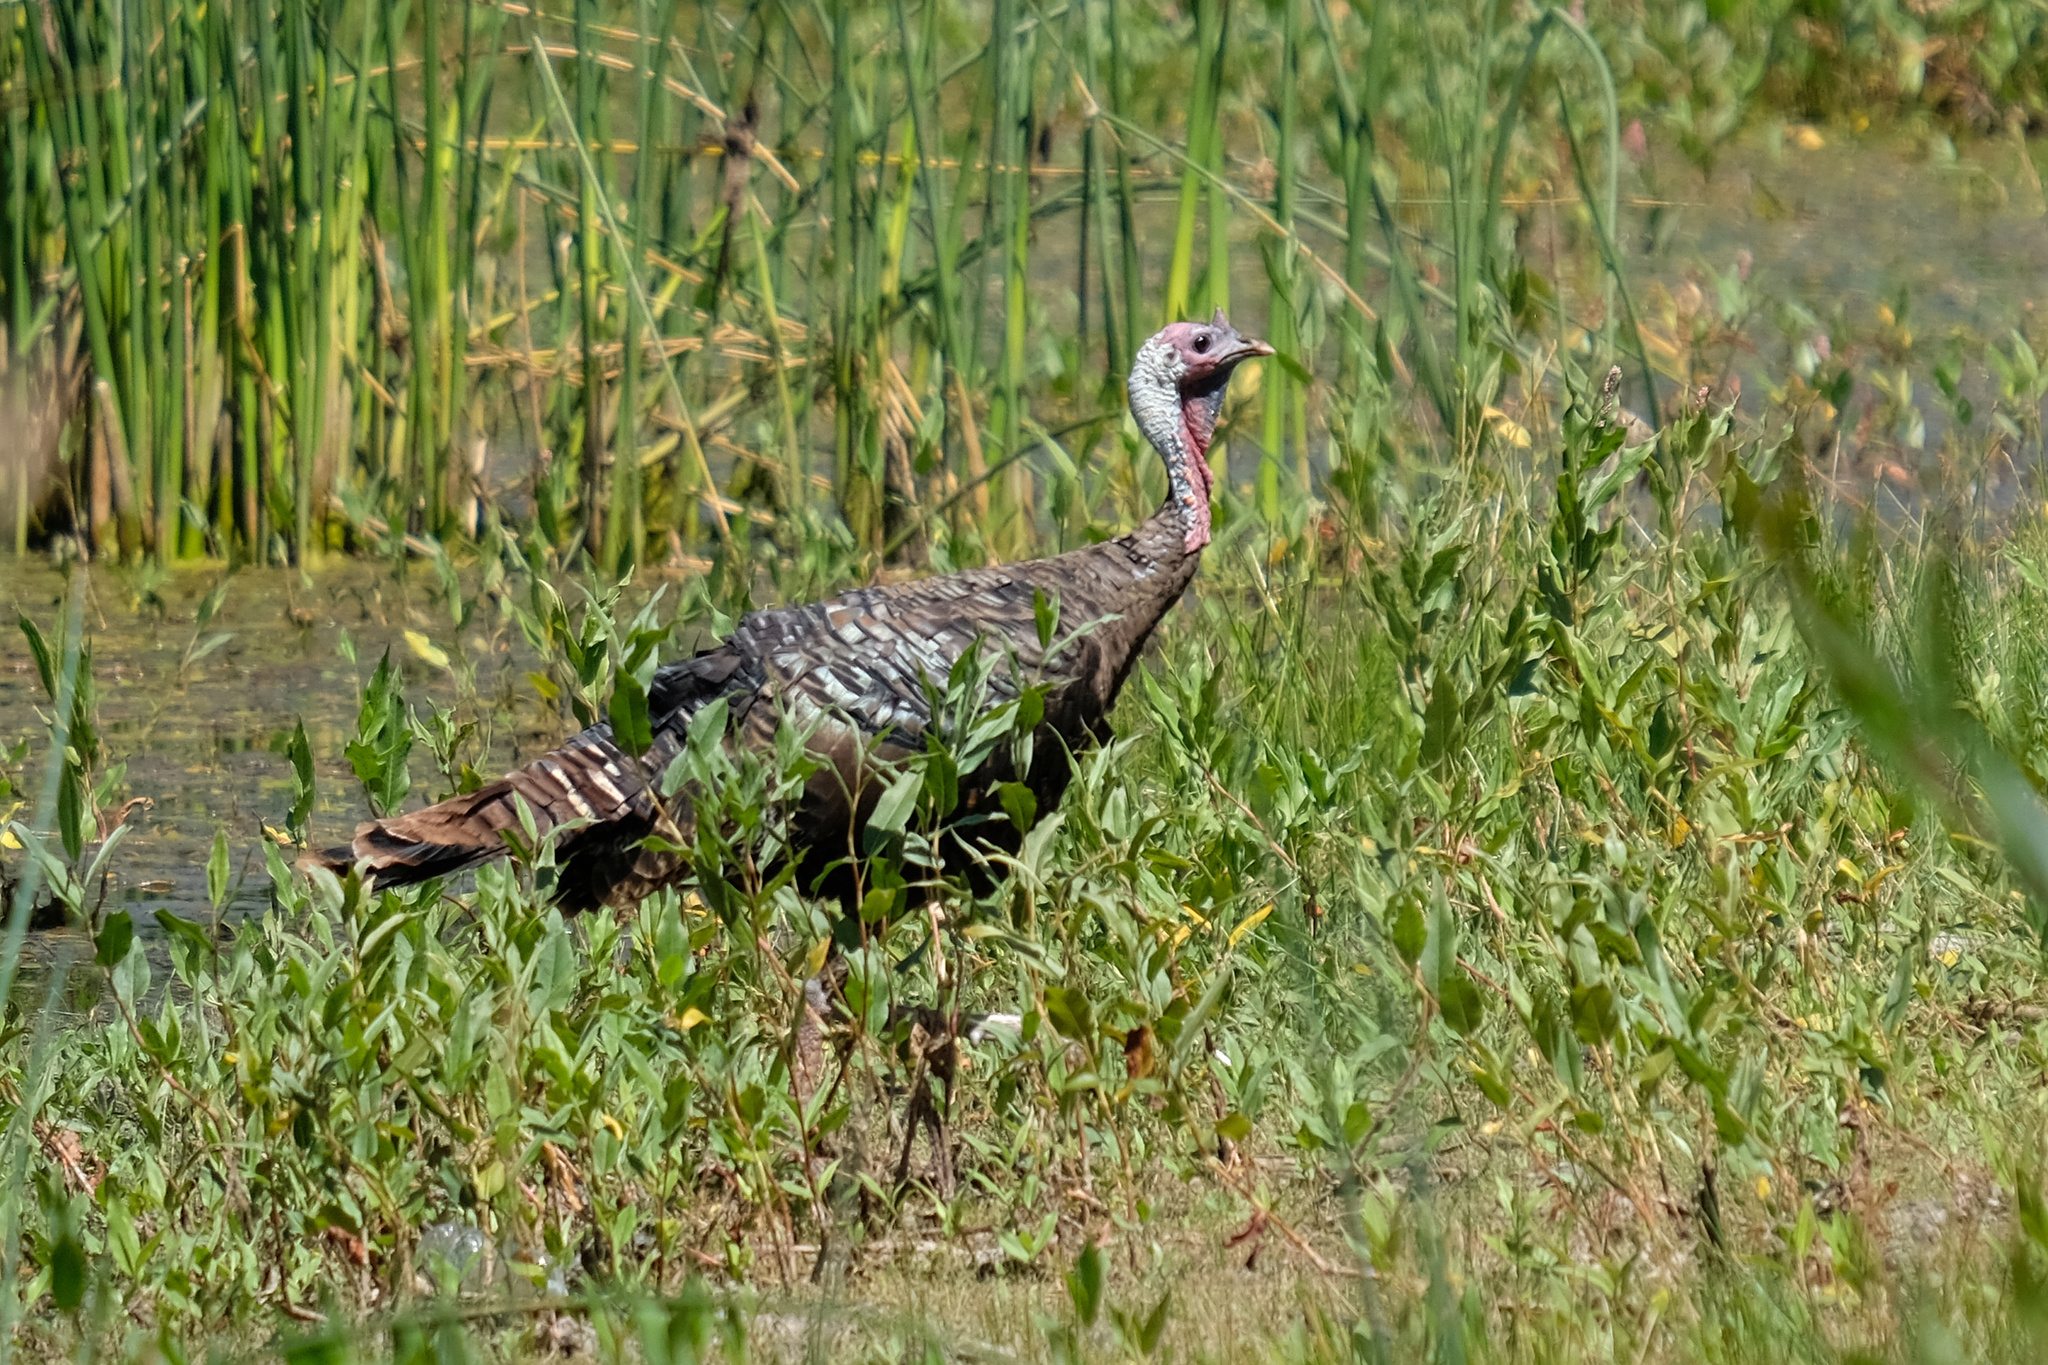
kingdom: Animalia
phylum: Chordata
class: Aves
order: Galliformes
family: Phasianidae
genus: Meleagris
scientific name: Meleagris gallopavo
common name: Wild turkey
